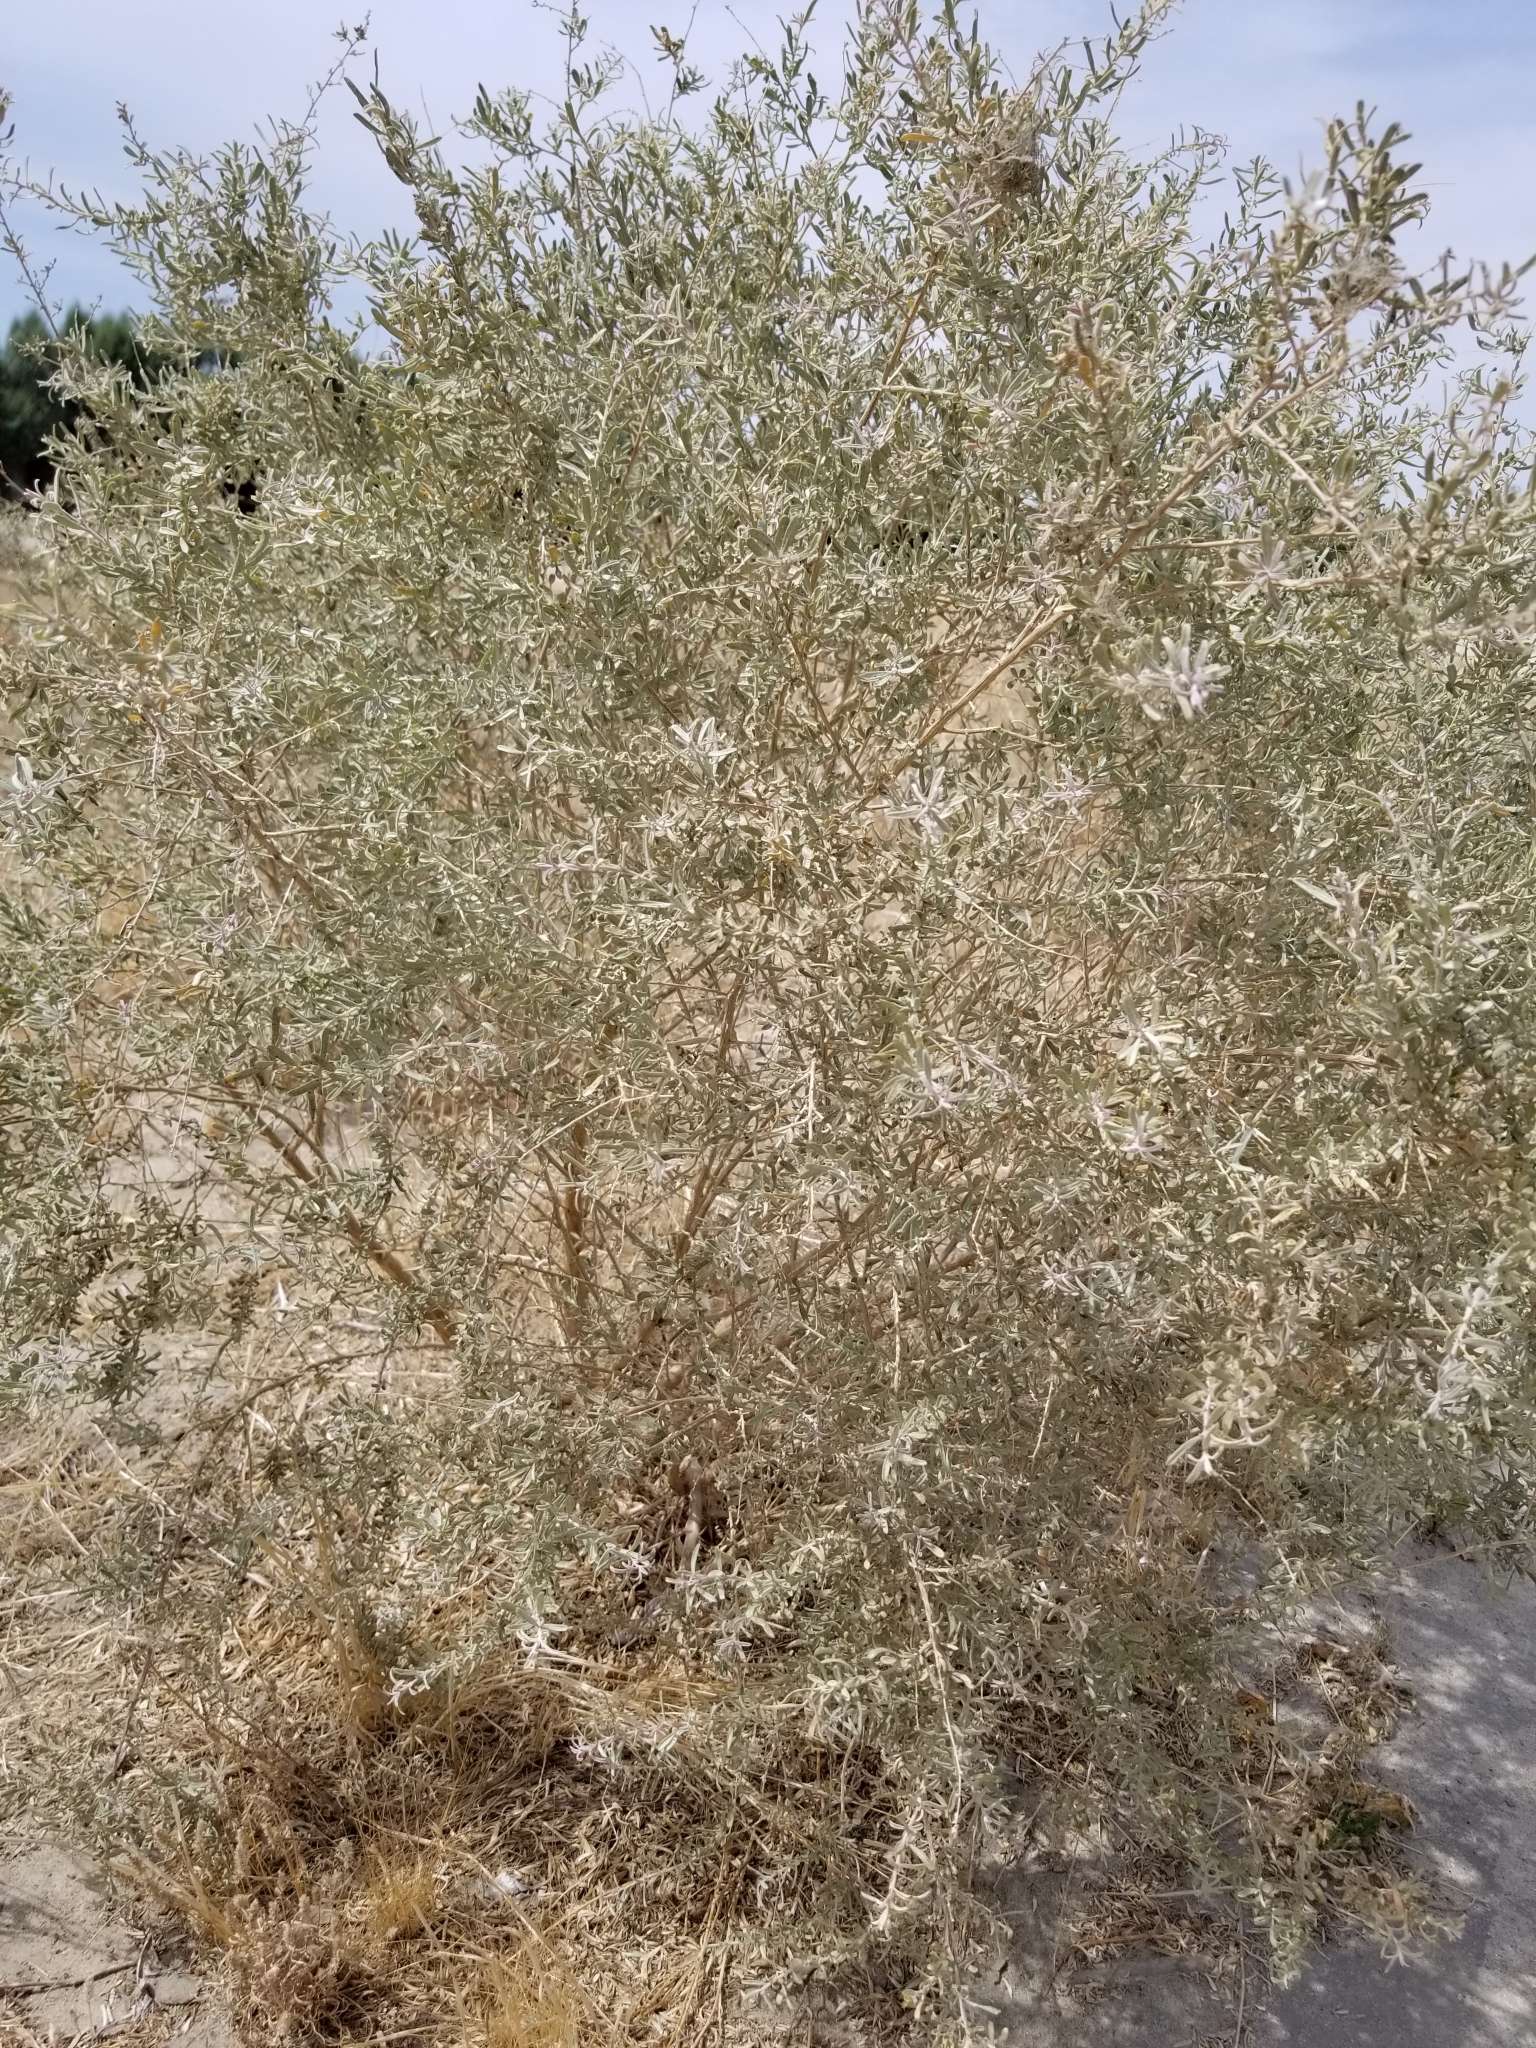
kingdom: Plantae
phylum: Tracheophyta
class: Magnoliopsida
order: Caryophyllales
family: Amaranthaceae
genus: Atriplex
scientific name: Atriplex canescens
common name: Four-wing saltbush
